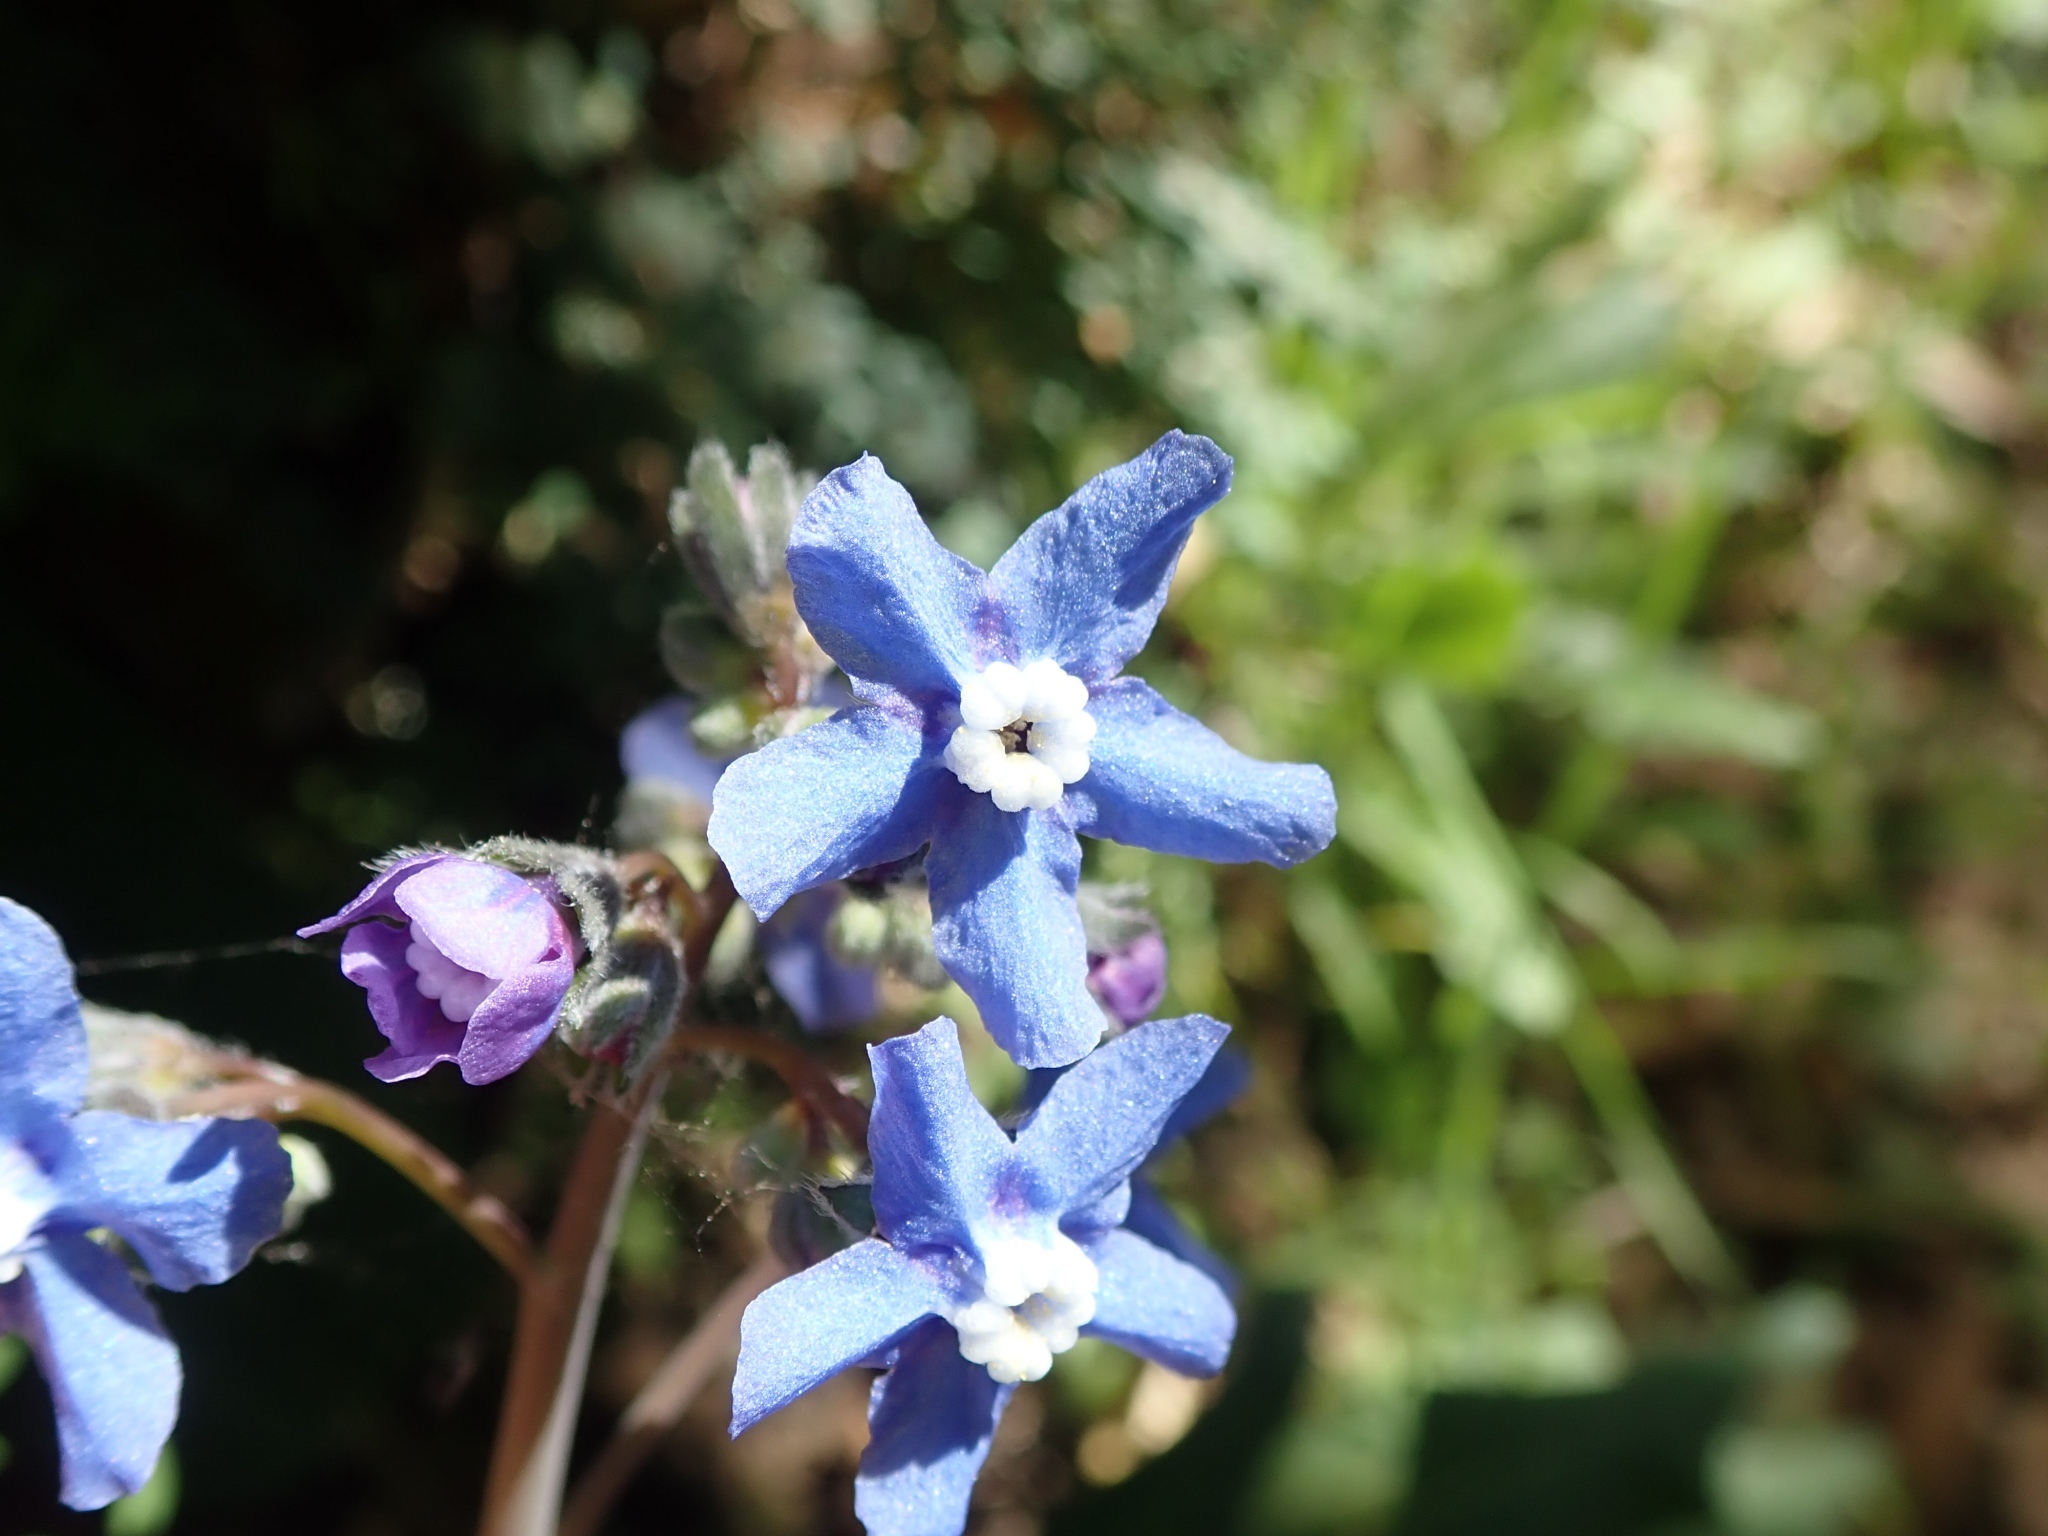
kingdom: Plantae
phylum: Tracheophyta
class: Magnoliopsida
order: Boraginales
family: Boraginaceae
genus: Adelinia
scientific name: Adelinia grande
